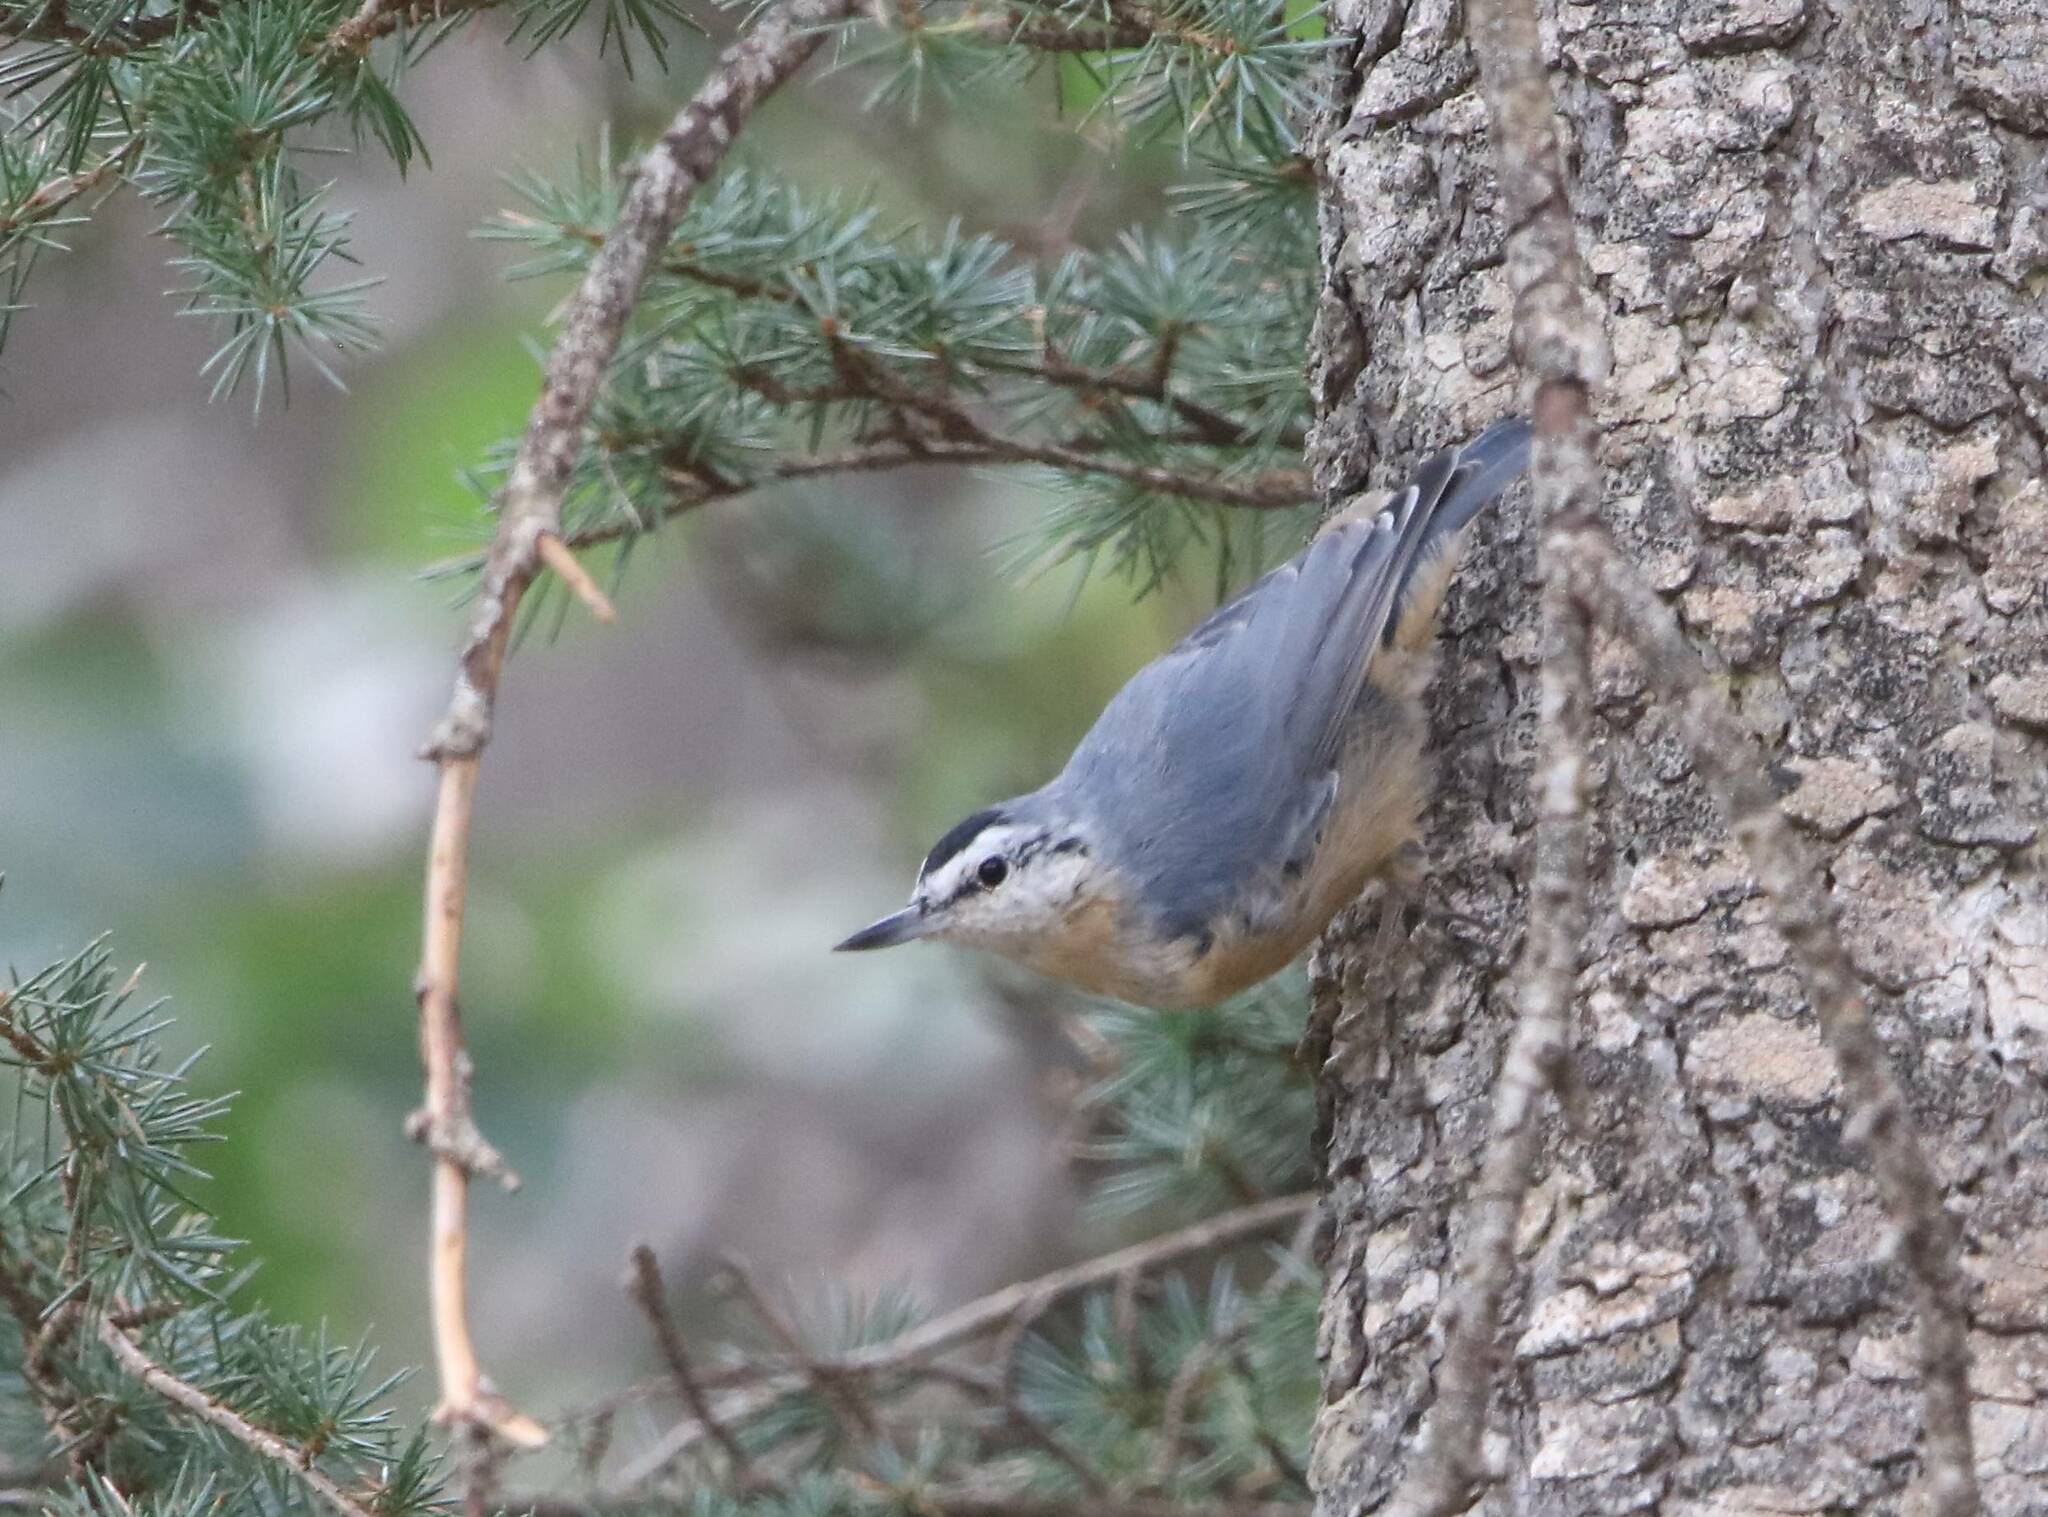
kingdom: Animalia
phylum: Chordata
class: Aves
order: Passeriformes
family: Sittidae
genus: Sitta
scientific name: Sitta ledanti
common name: Algerian nuthatch
